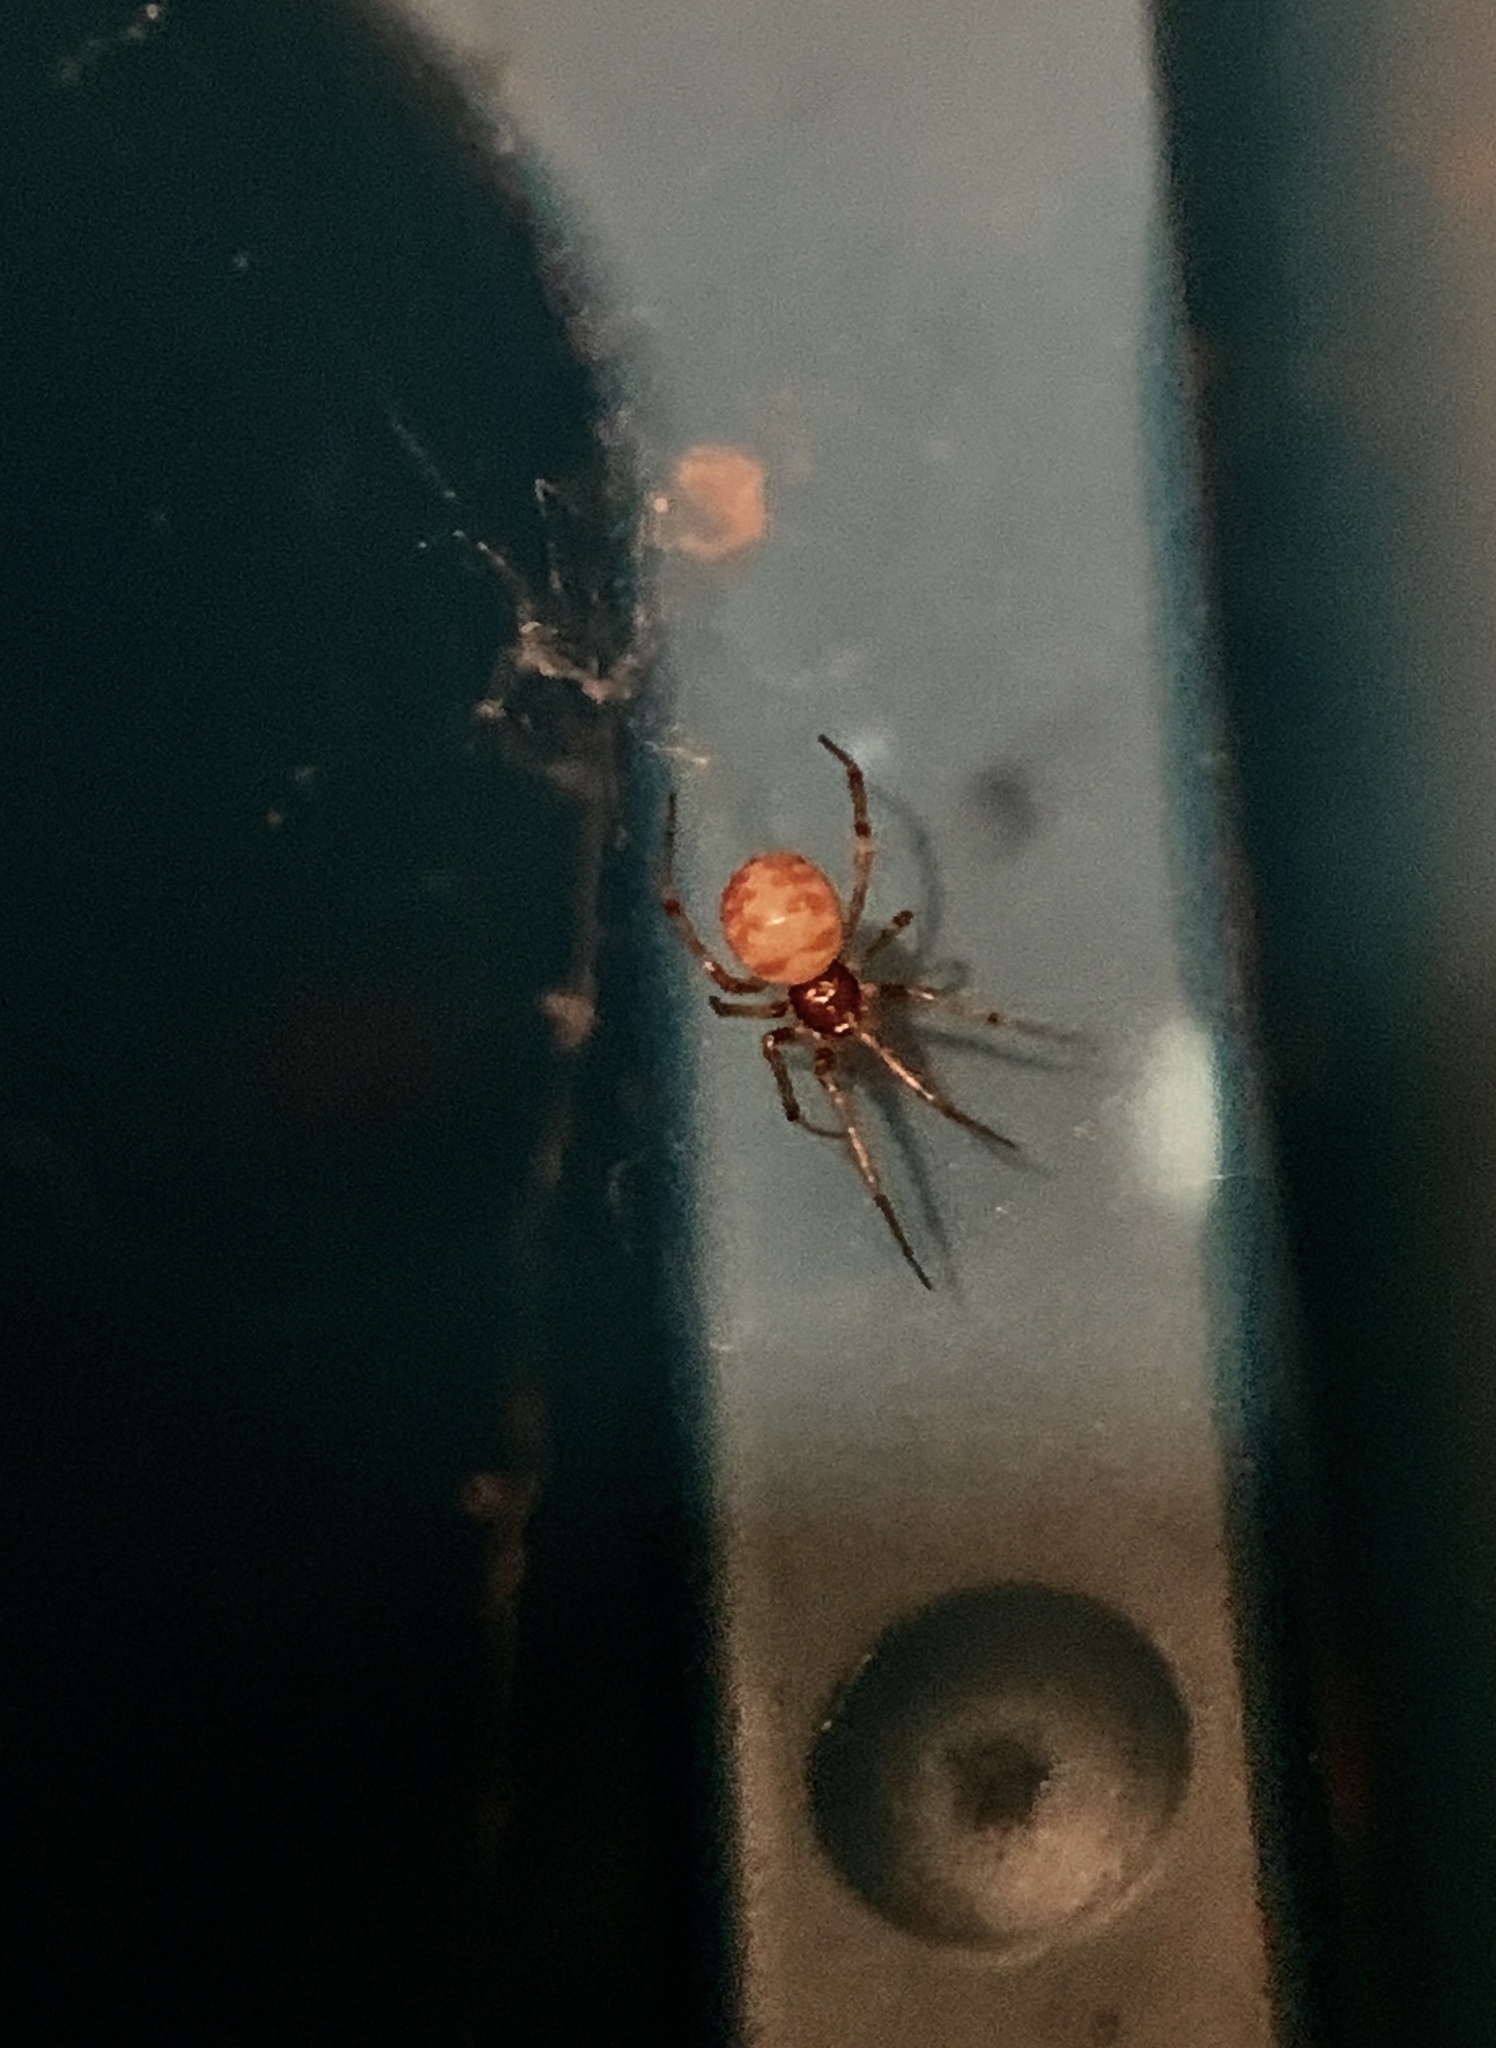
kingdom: Animalia
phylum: Arthropoda
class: Arachnida
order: Araneae
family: Theridiidae
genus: Steatoda
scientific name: Steatoda triangulosa
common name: Triangulate bud spider
